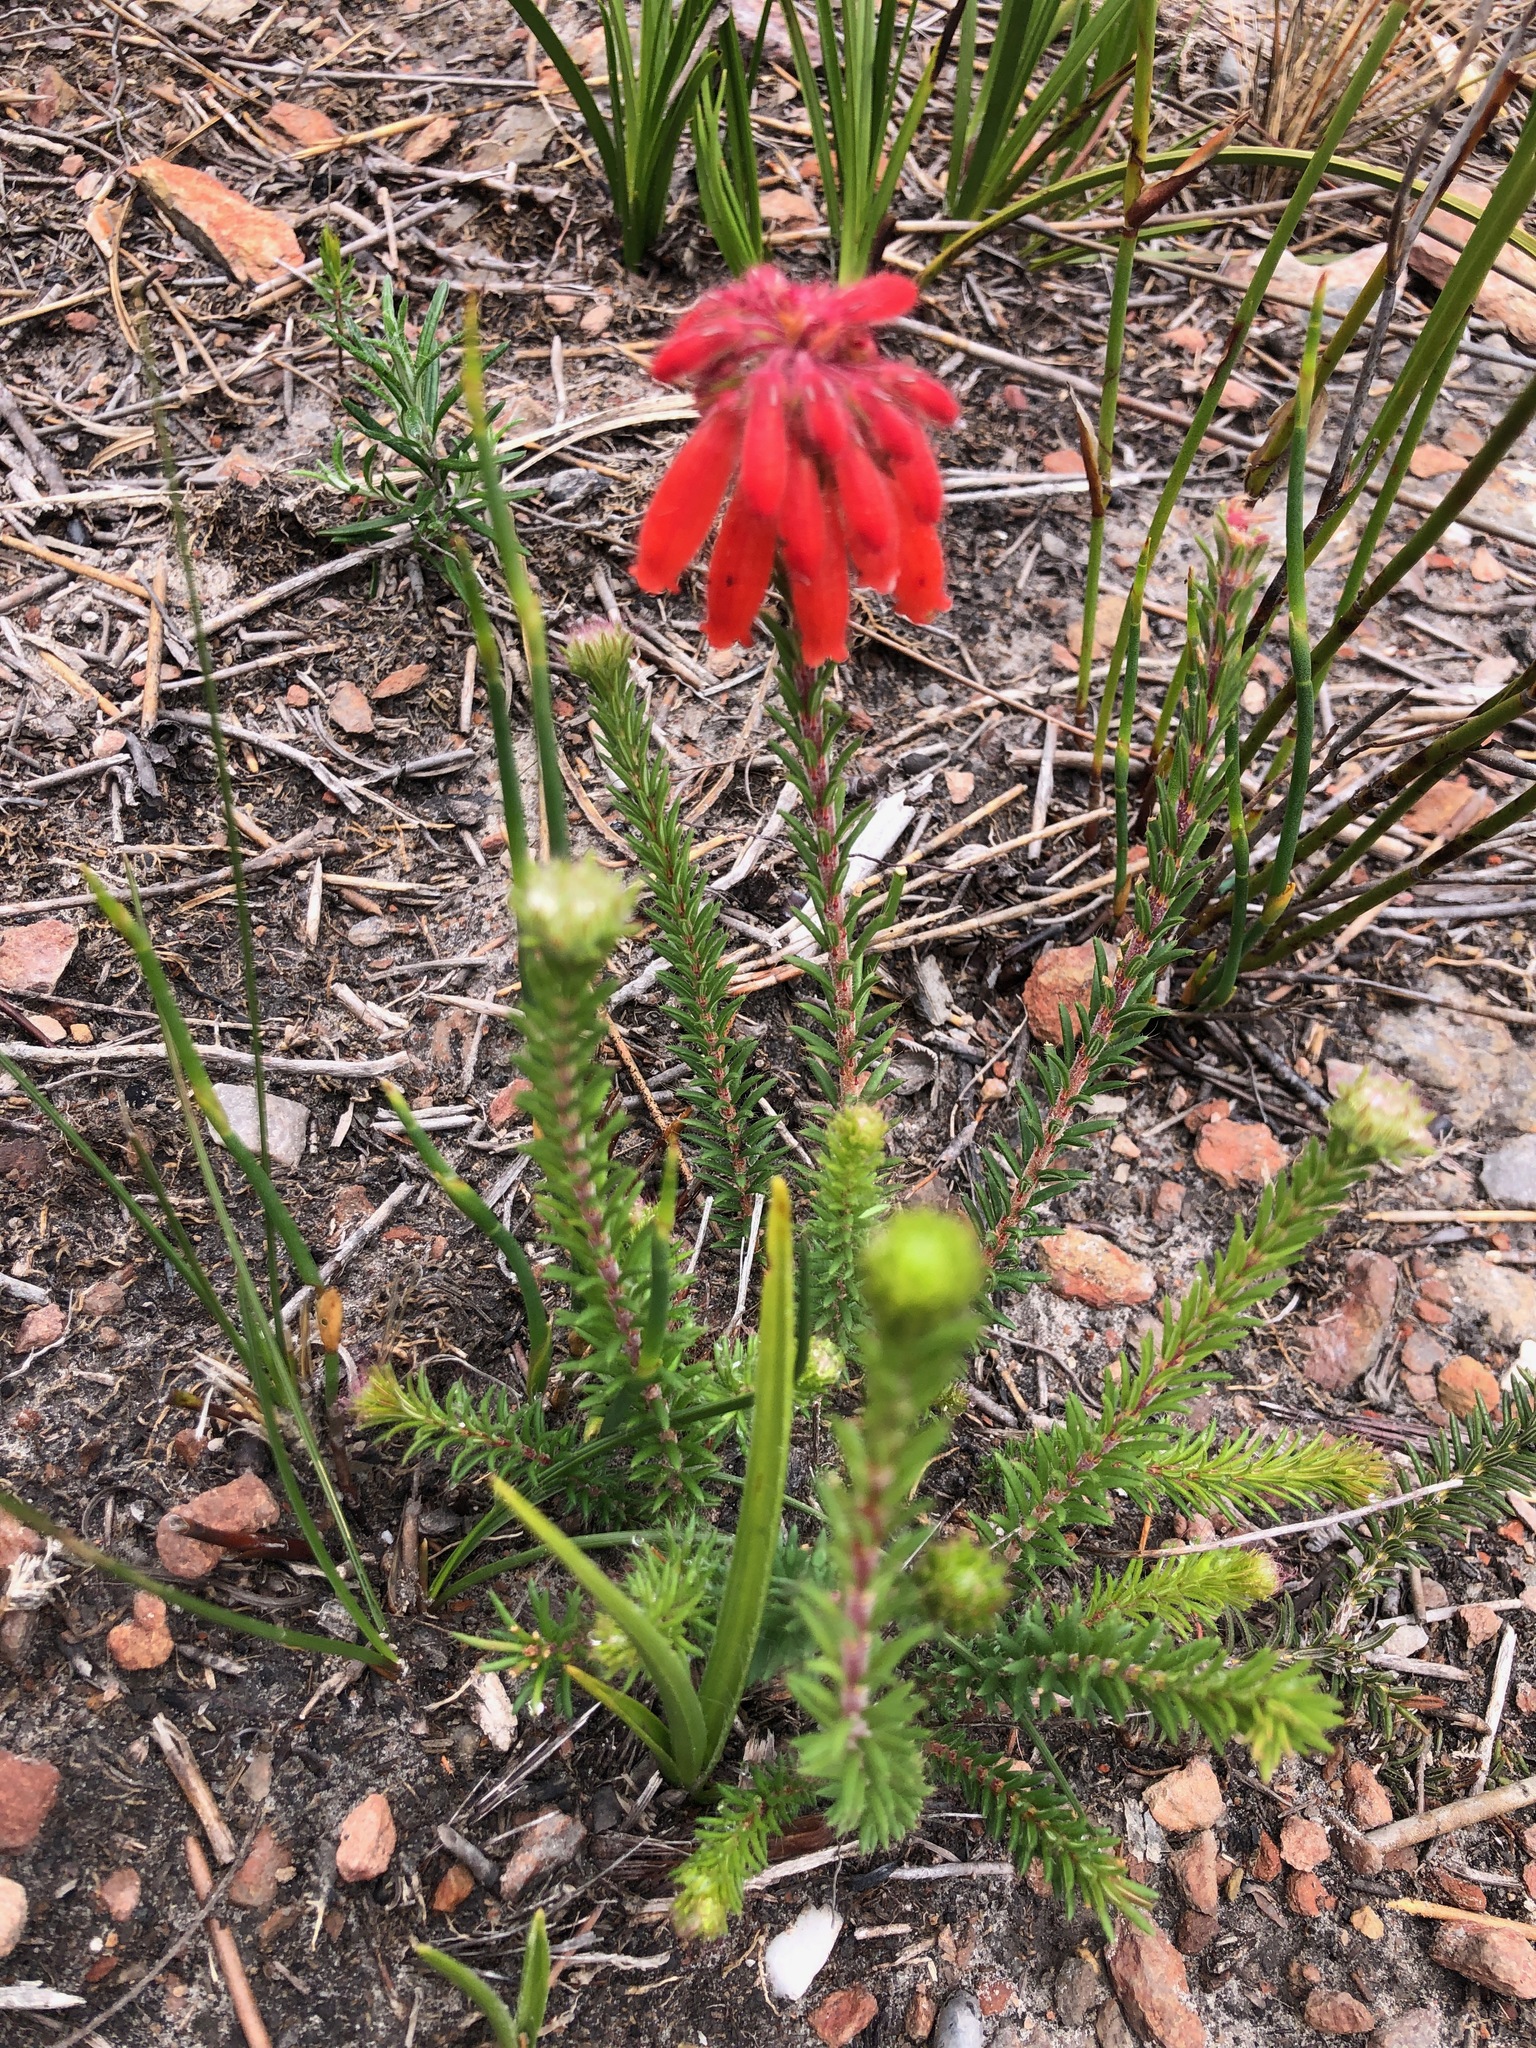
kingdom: Plantae
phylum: Tracheophyta
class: Magnoliopsida
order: Ericales
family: Ericaceae
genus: Erica
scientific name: Erica cerinthoides
